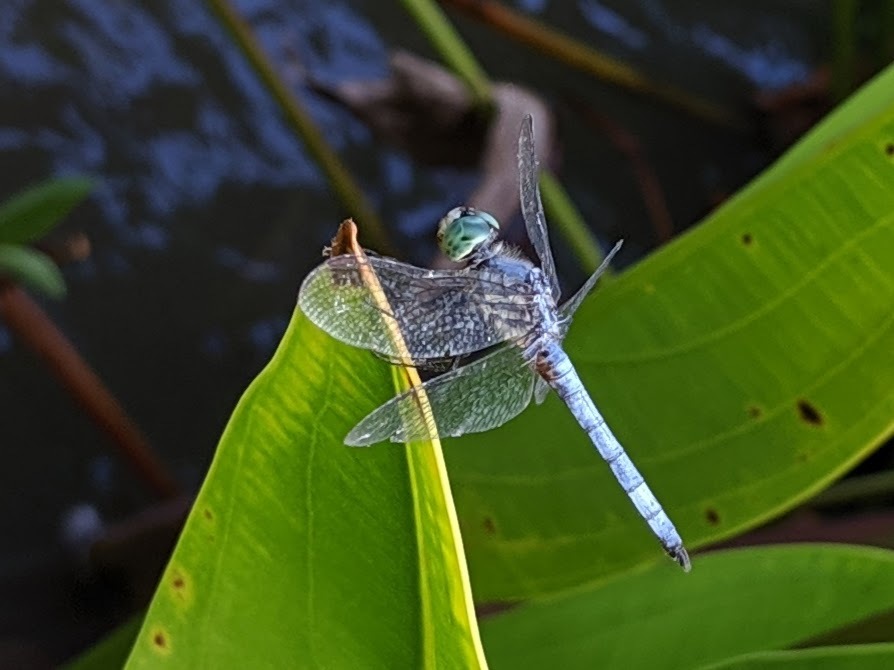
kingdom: Animalia
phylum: Arthropoda
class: Insecta
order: Odonata
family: Libellulidae
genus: Pachydiplax
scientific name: Pachydiplax longipennis
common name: Blue dasher
